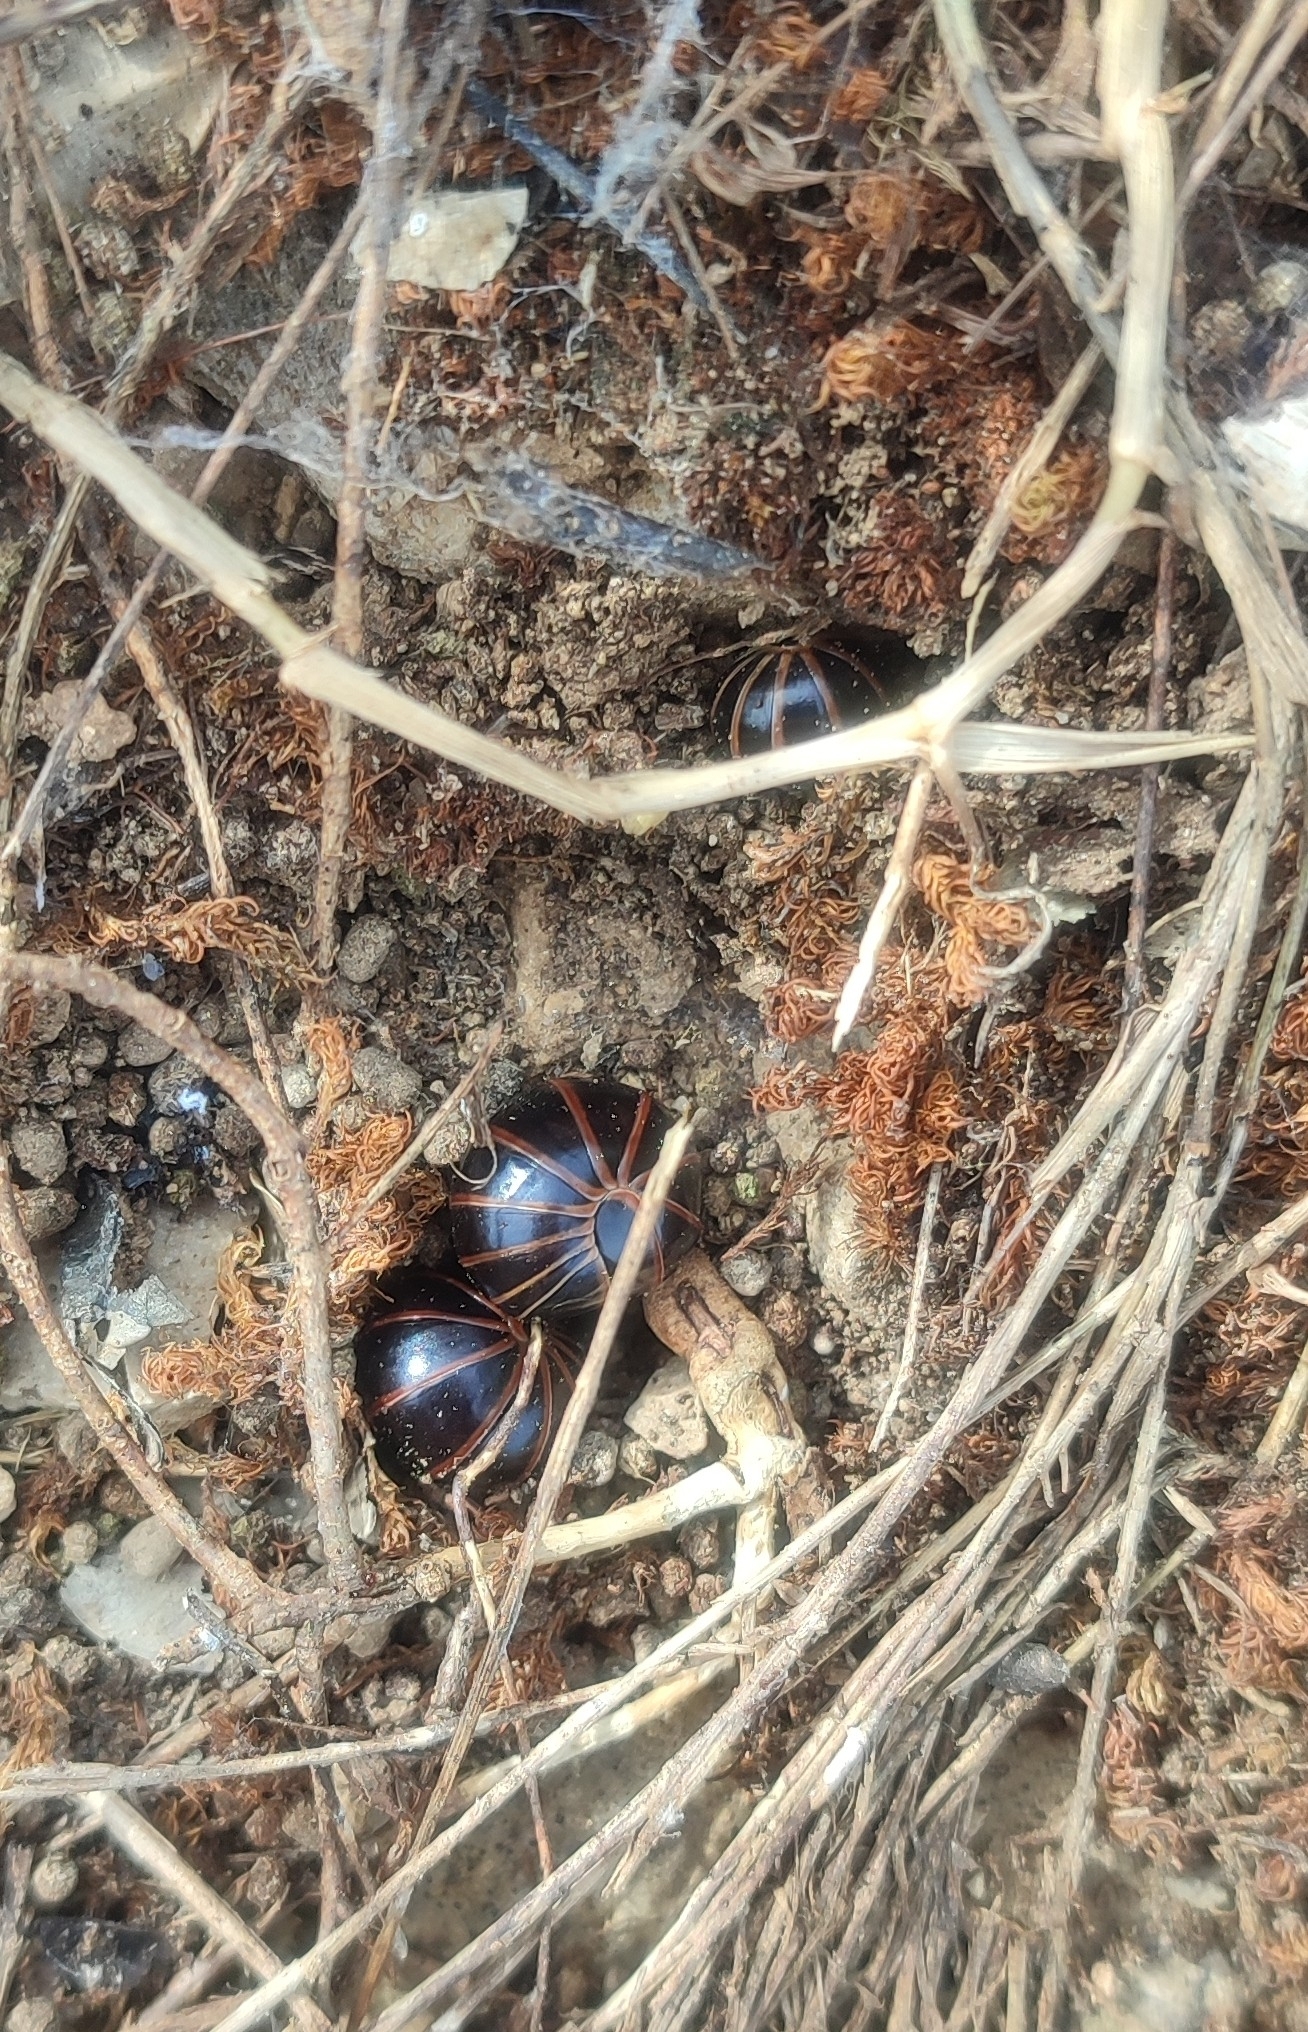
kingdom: Animalia
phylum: Arthropoda
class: Diplopoda
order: Glomerida
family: Glomeridae
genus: Glomeris
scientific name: Glomeris marginata
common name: Bordered pill millipede
